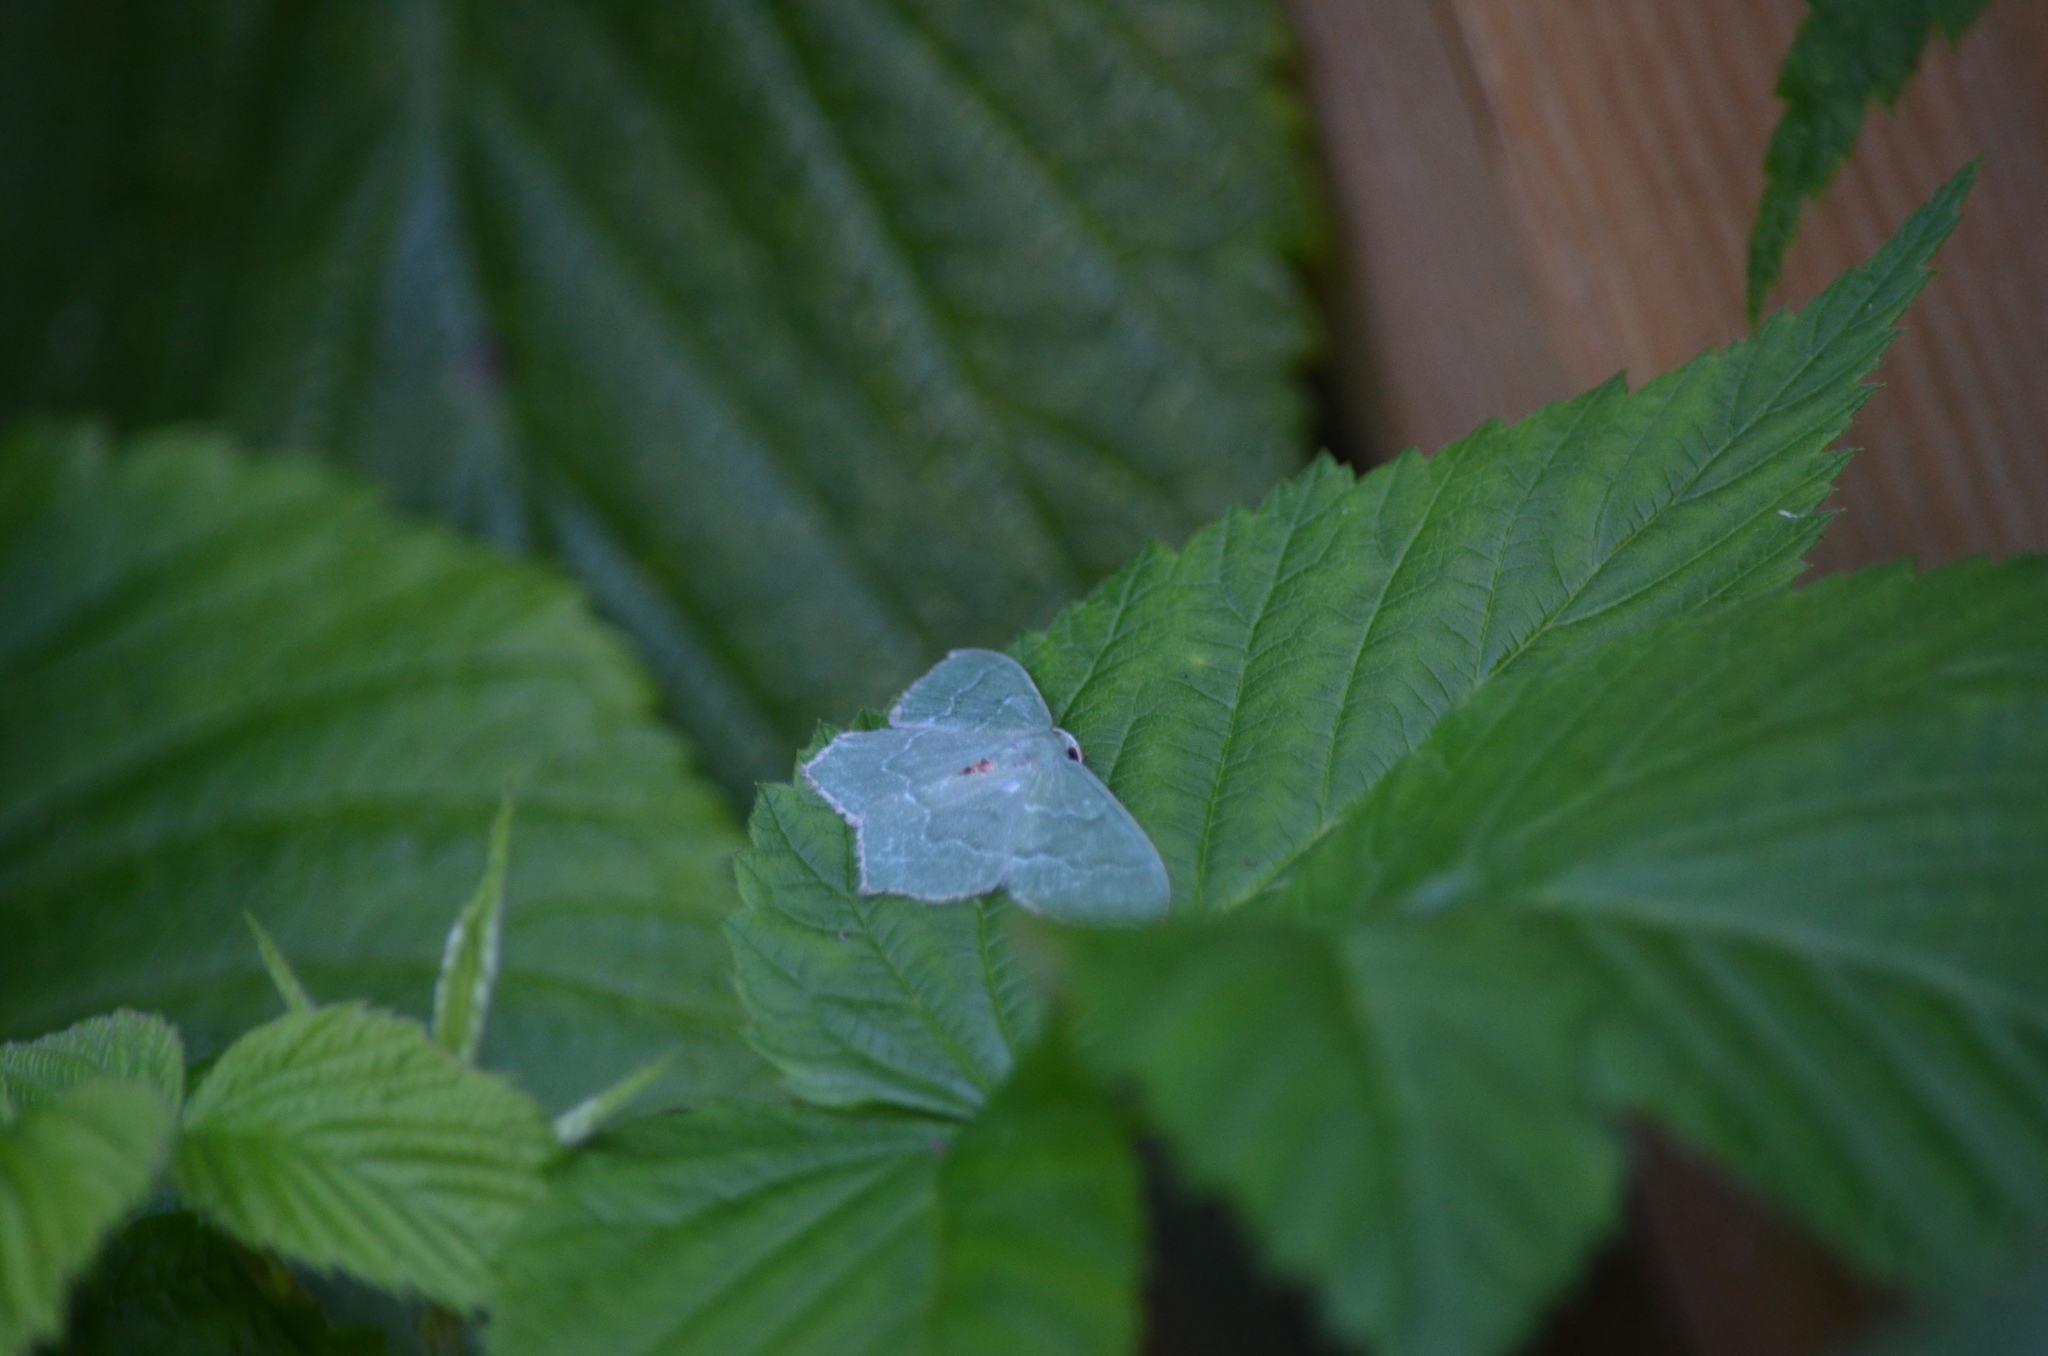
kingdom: Animalia
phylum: Arthropoda
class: Insecta
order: Lepidoptera
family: Geometridae
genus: Hemithea
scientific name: Hemithea aestivaria
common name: Common emerald
